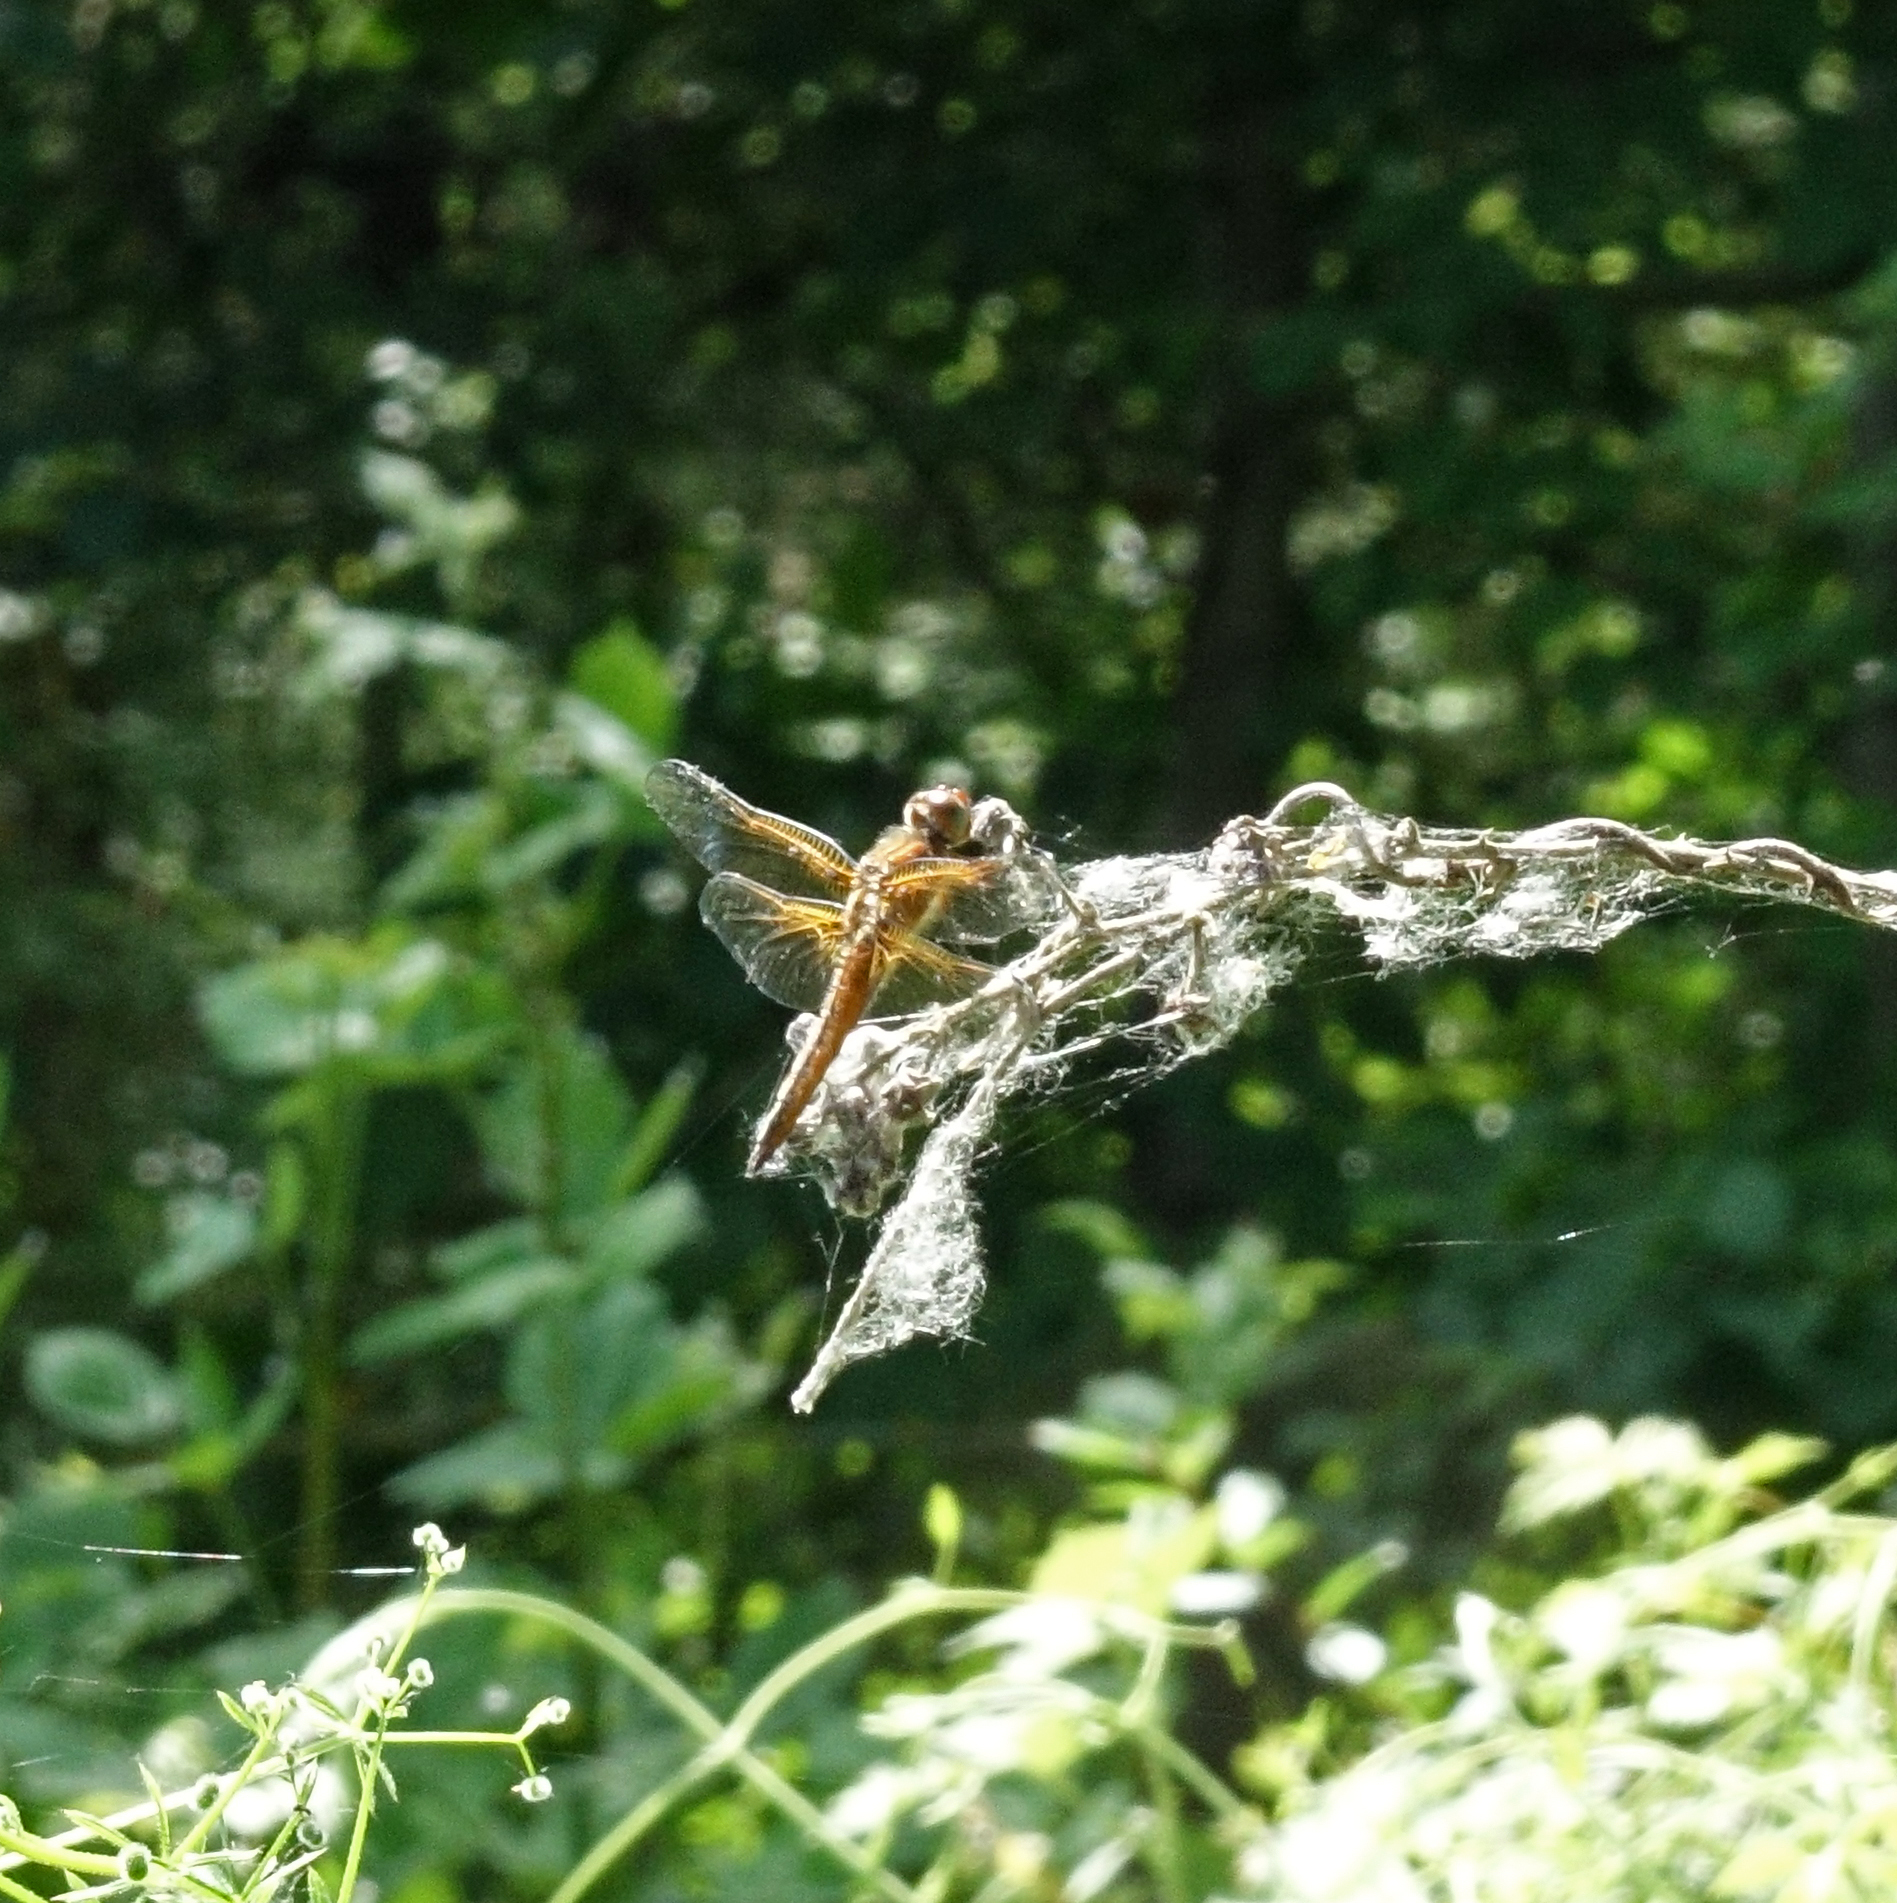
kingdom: Animalia
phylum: Arthropoda
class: Insecta
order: Odonata
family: Libellulidae
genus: Libellula
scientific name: Libellula fulva
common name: Blue chaser
